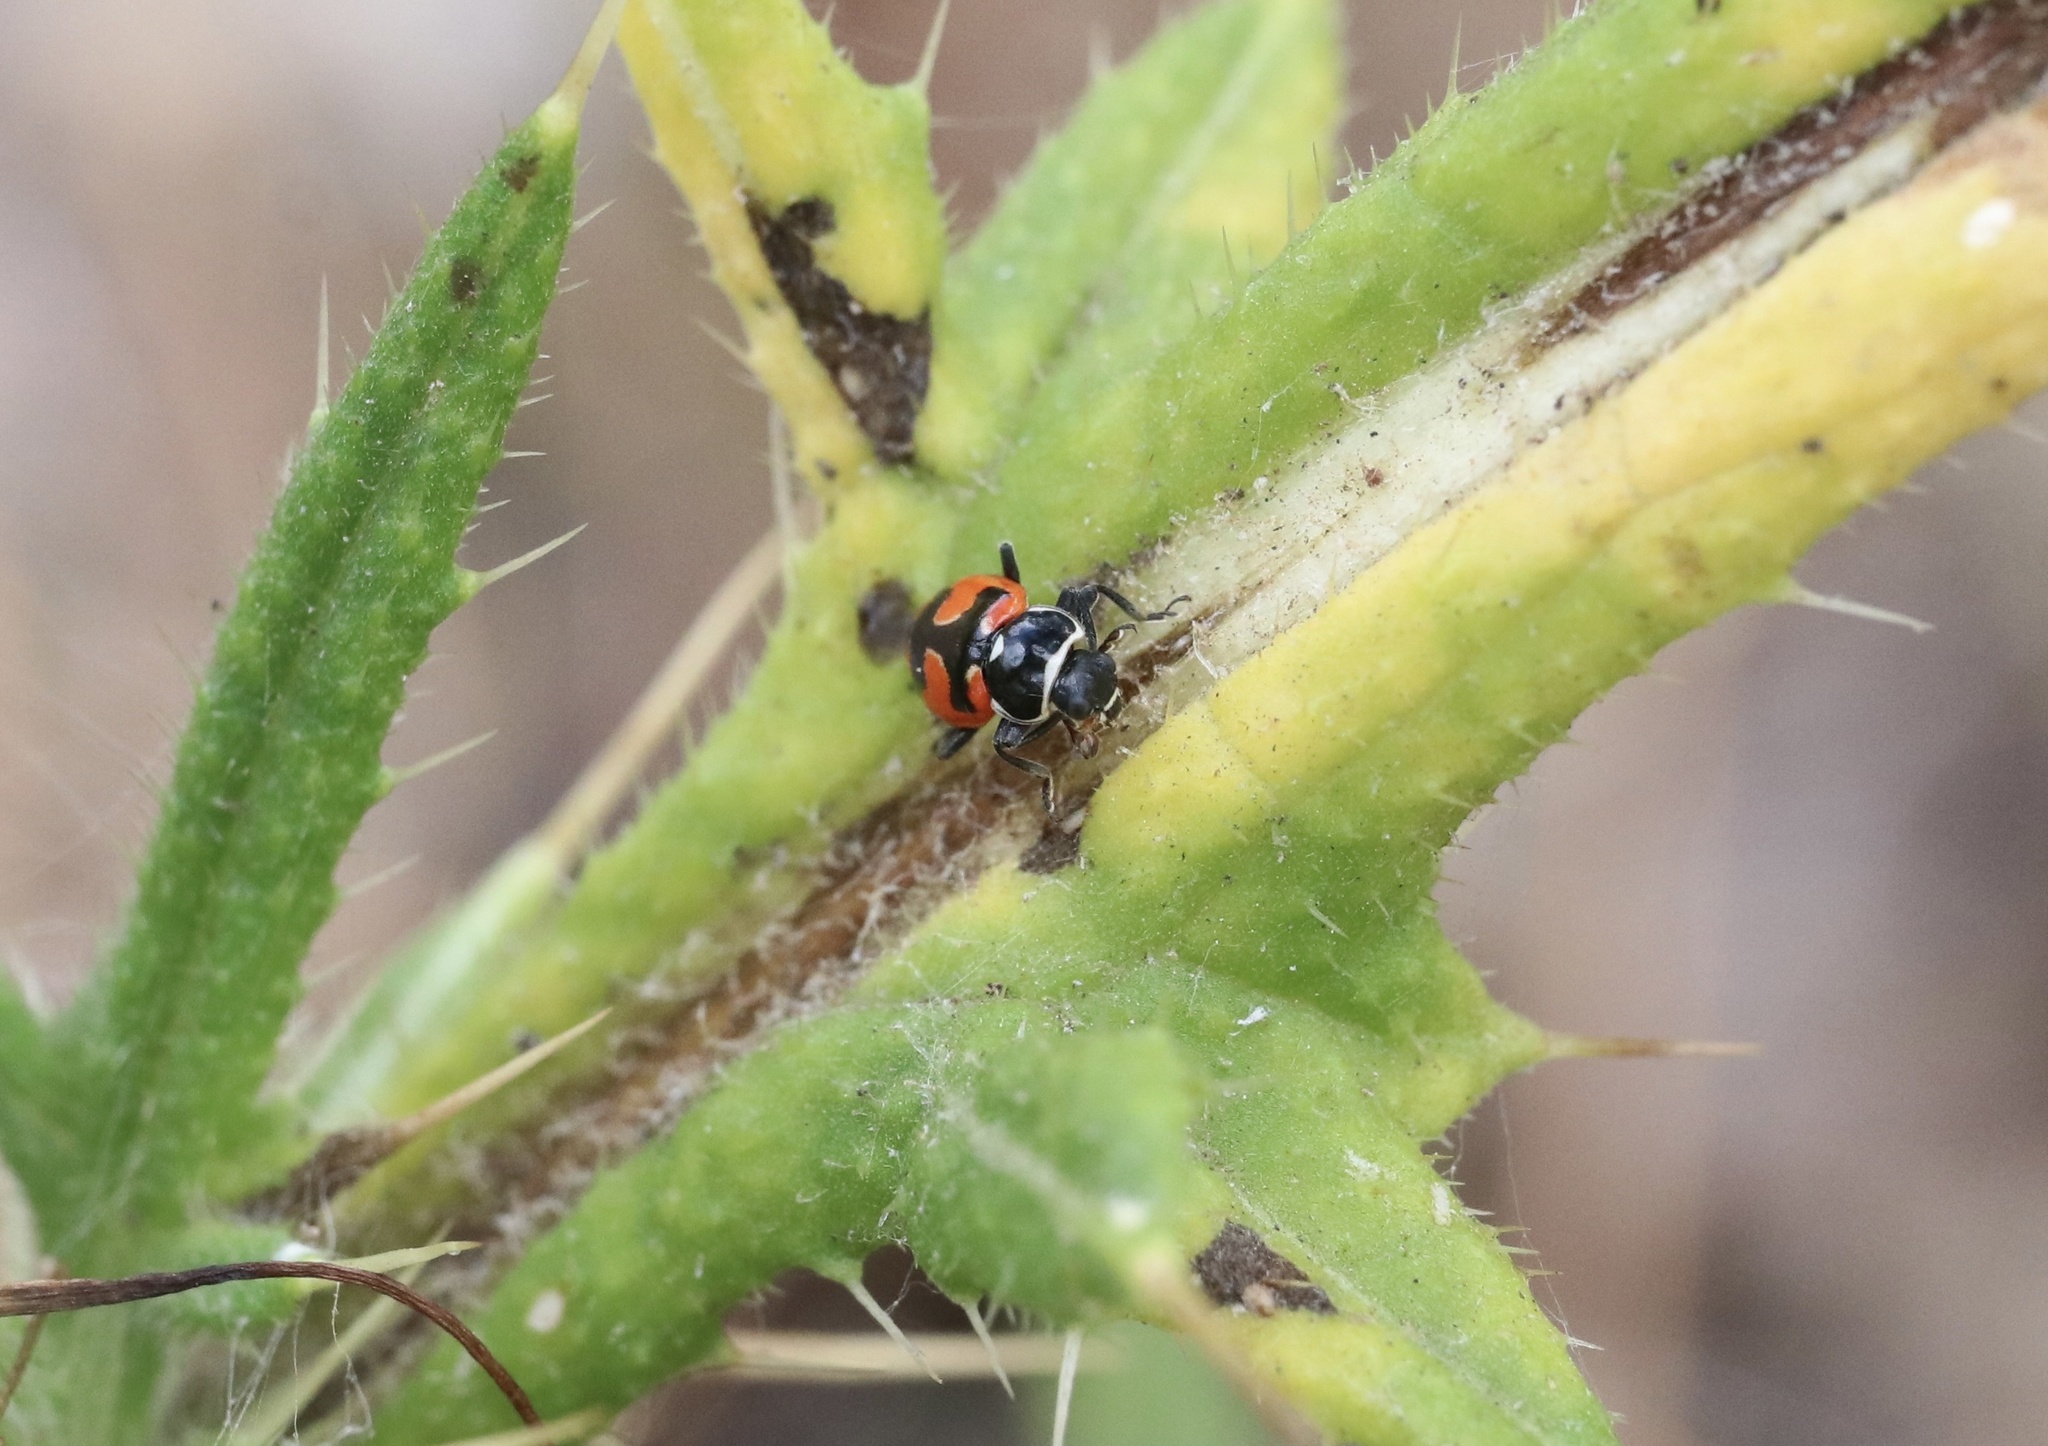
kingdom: Animalia
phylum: Arthropoda
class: Insecta
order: Coleoptera
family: Coccinellidae
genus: Eriopis
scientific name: Eriopis eschscholtzii
